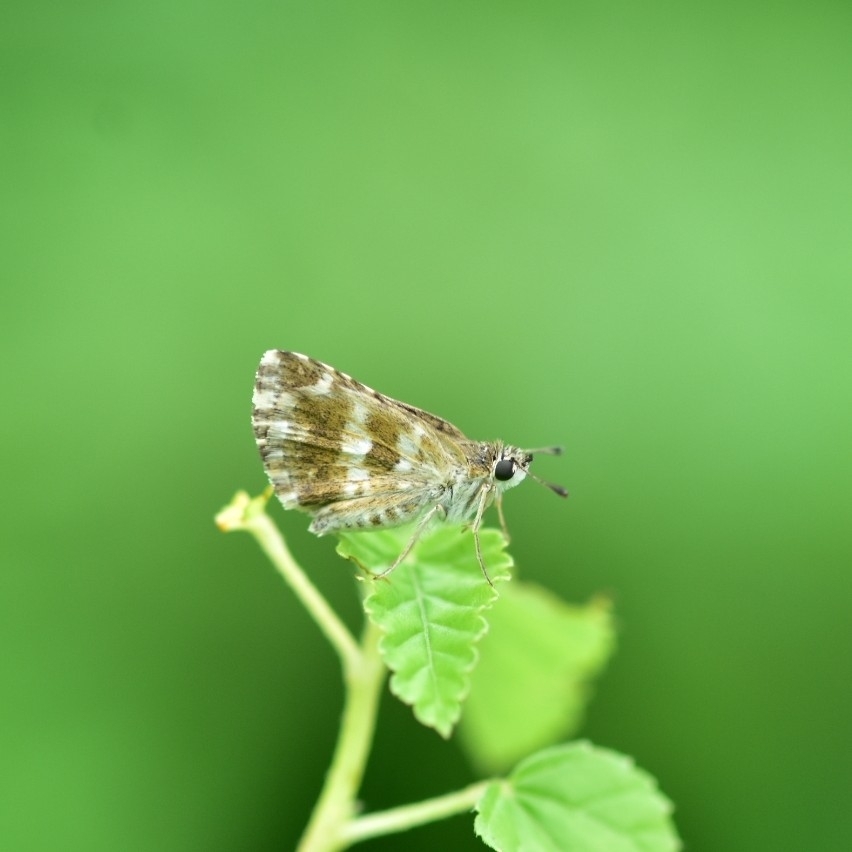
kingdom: Animalia
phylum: Arthropoda
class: Insecta
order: Lepidoptera
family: Hesperiidae
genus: Spialia
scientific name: Spialia galba
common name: Indian skipper
